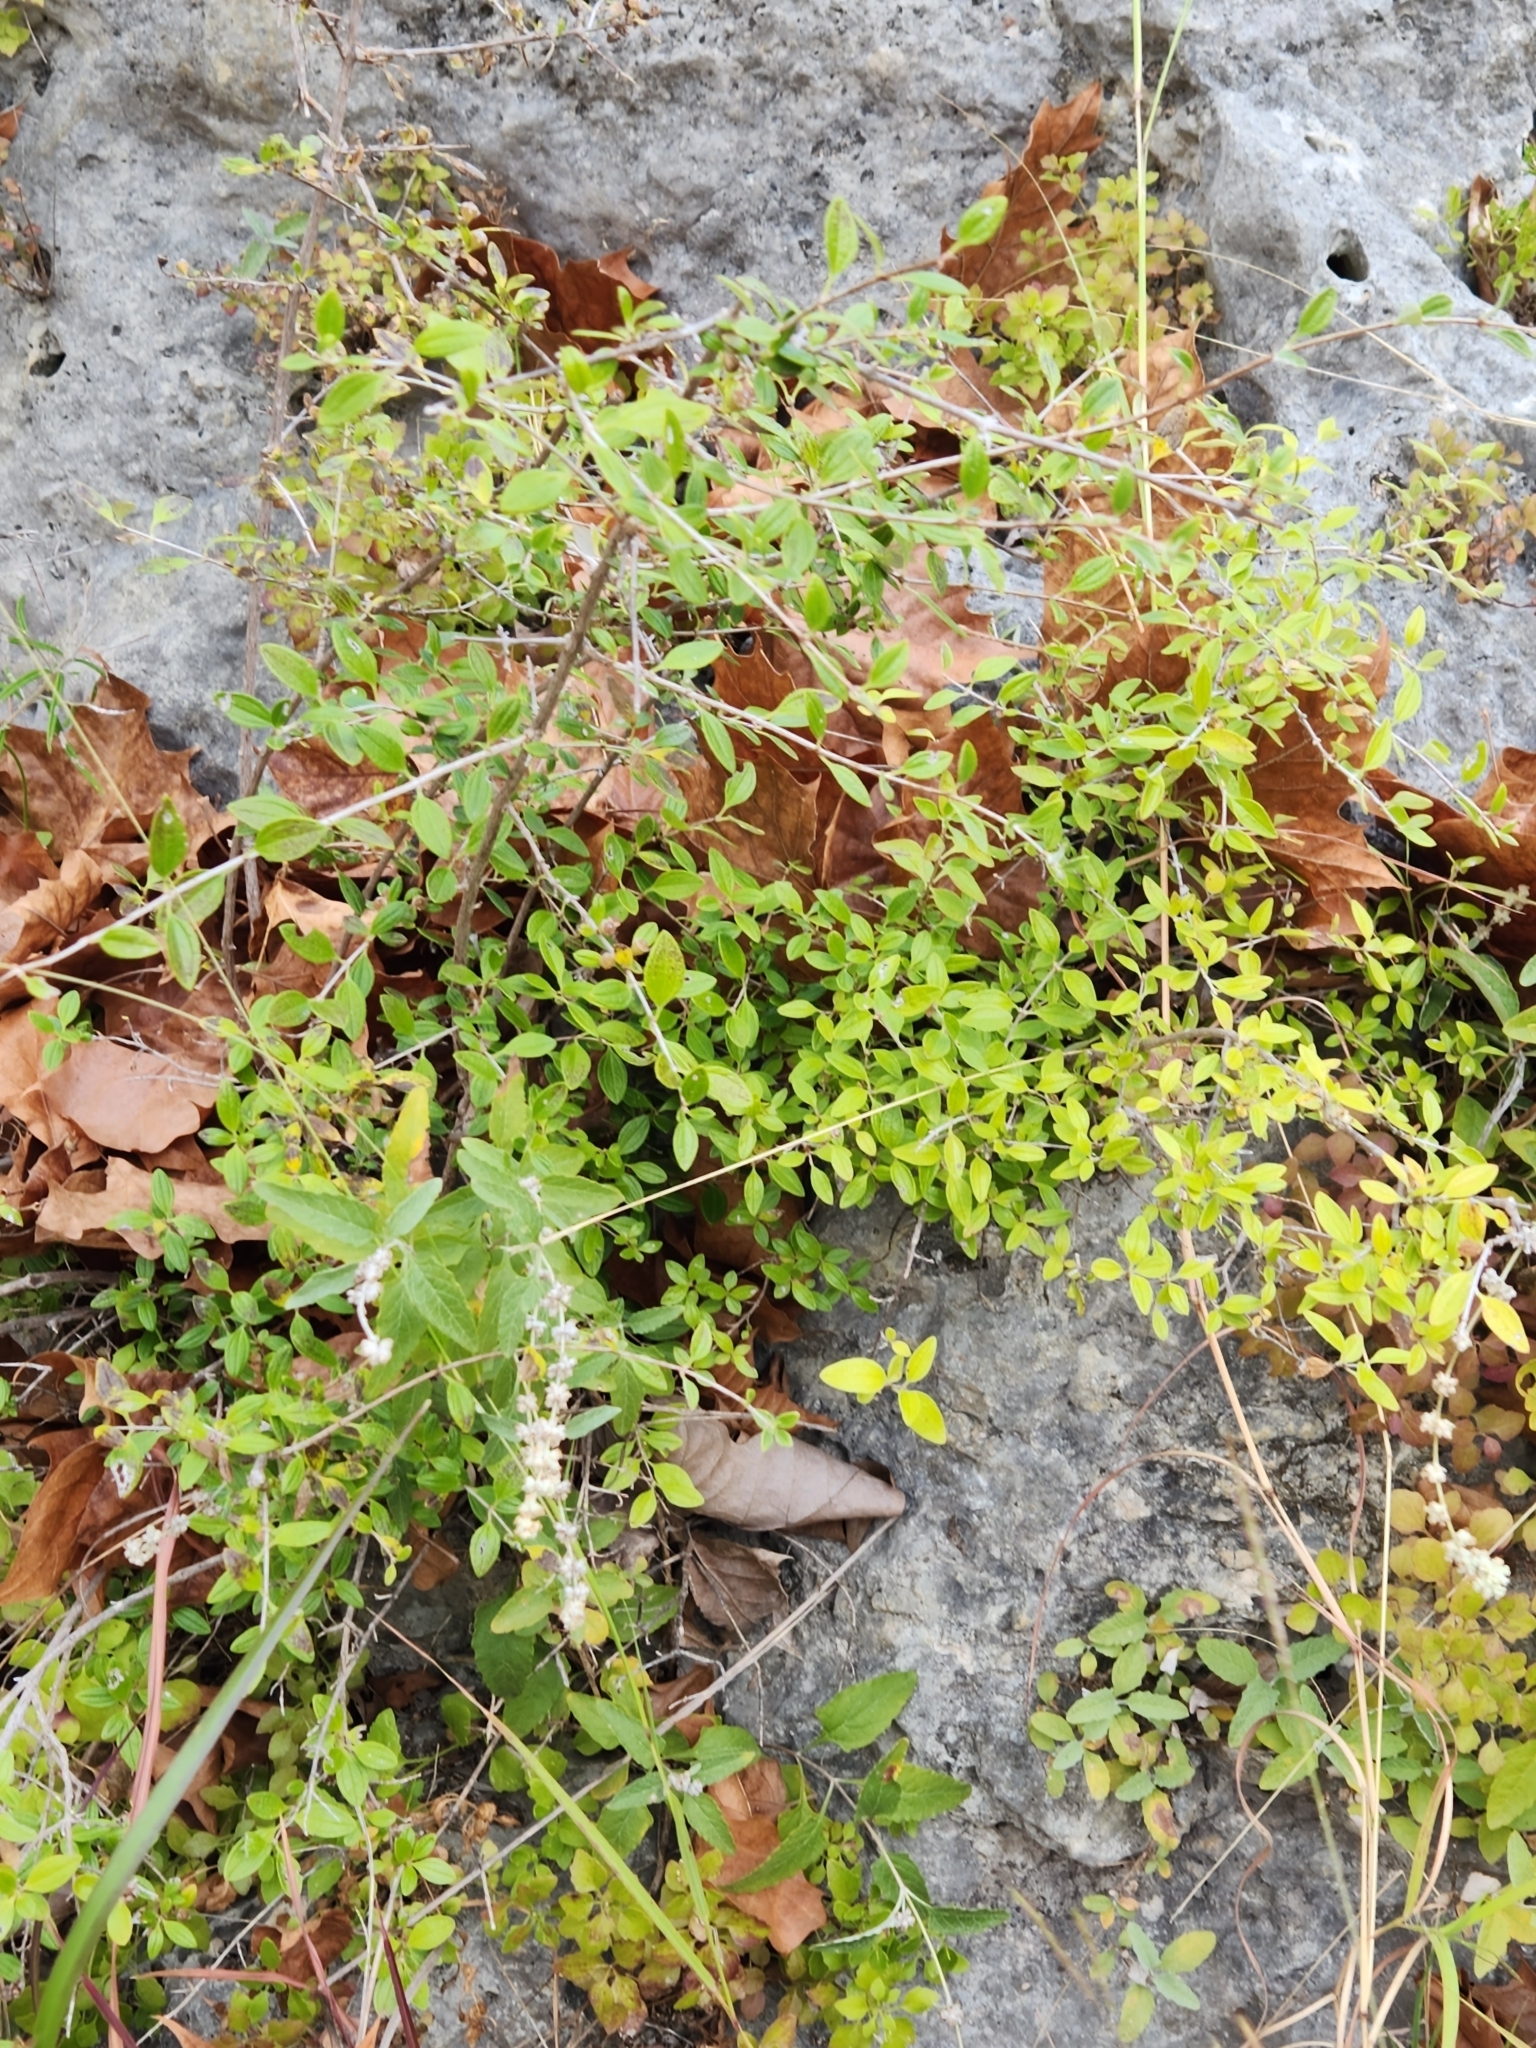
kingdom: Plantae
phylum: Tracheophyta
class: Magnoliopsida
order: Cornales
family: Hydrangeaceae
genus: Philadelphus
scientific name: Philadelphus texensis
